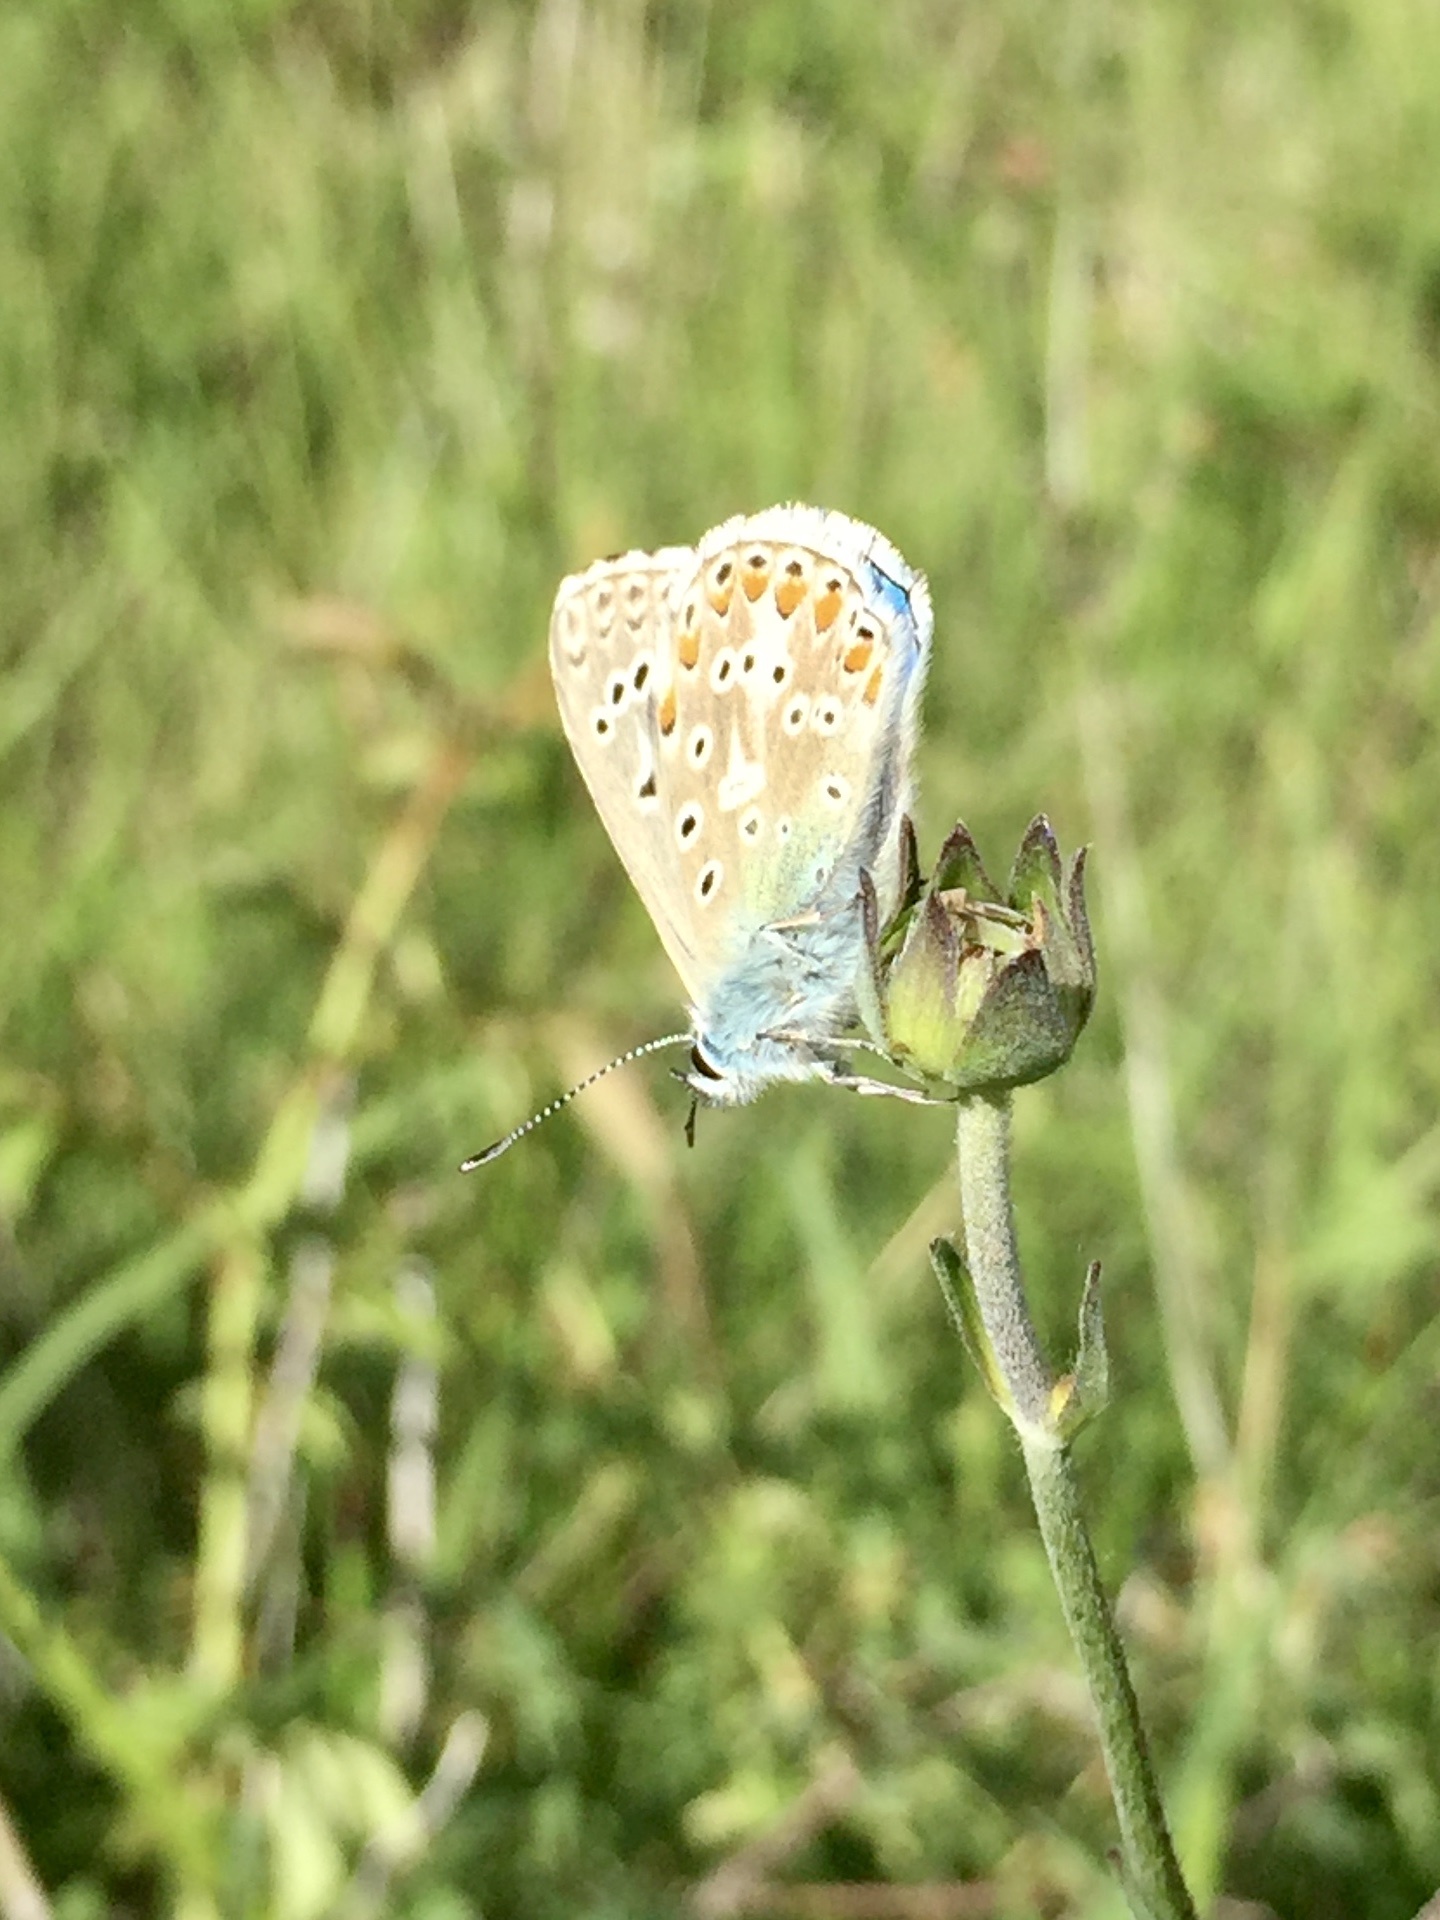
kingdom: Animalia
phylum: Arthropoda
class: Insecta
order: Lepidoptera
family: Lycaenidae
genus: Lysandra
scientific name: Lysandra bellargus
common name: Adonis blue
